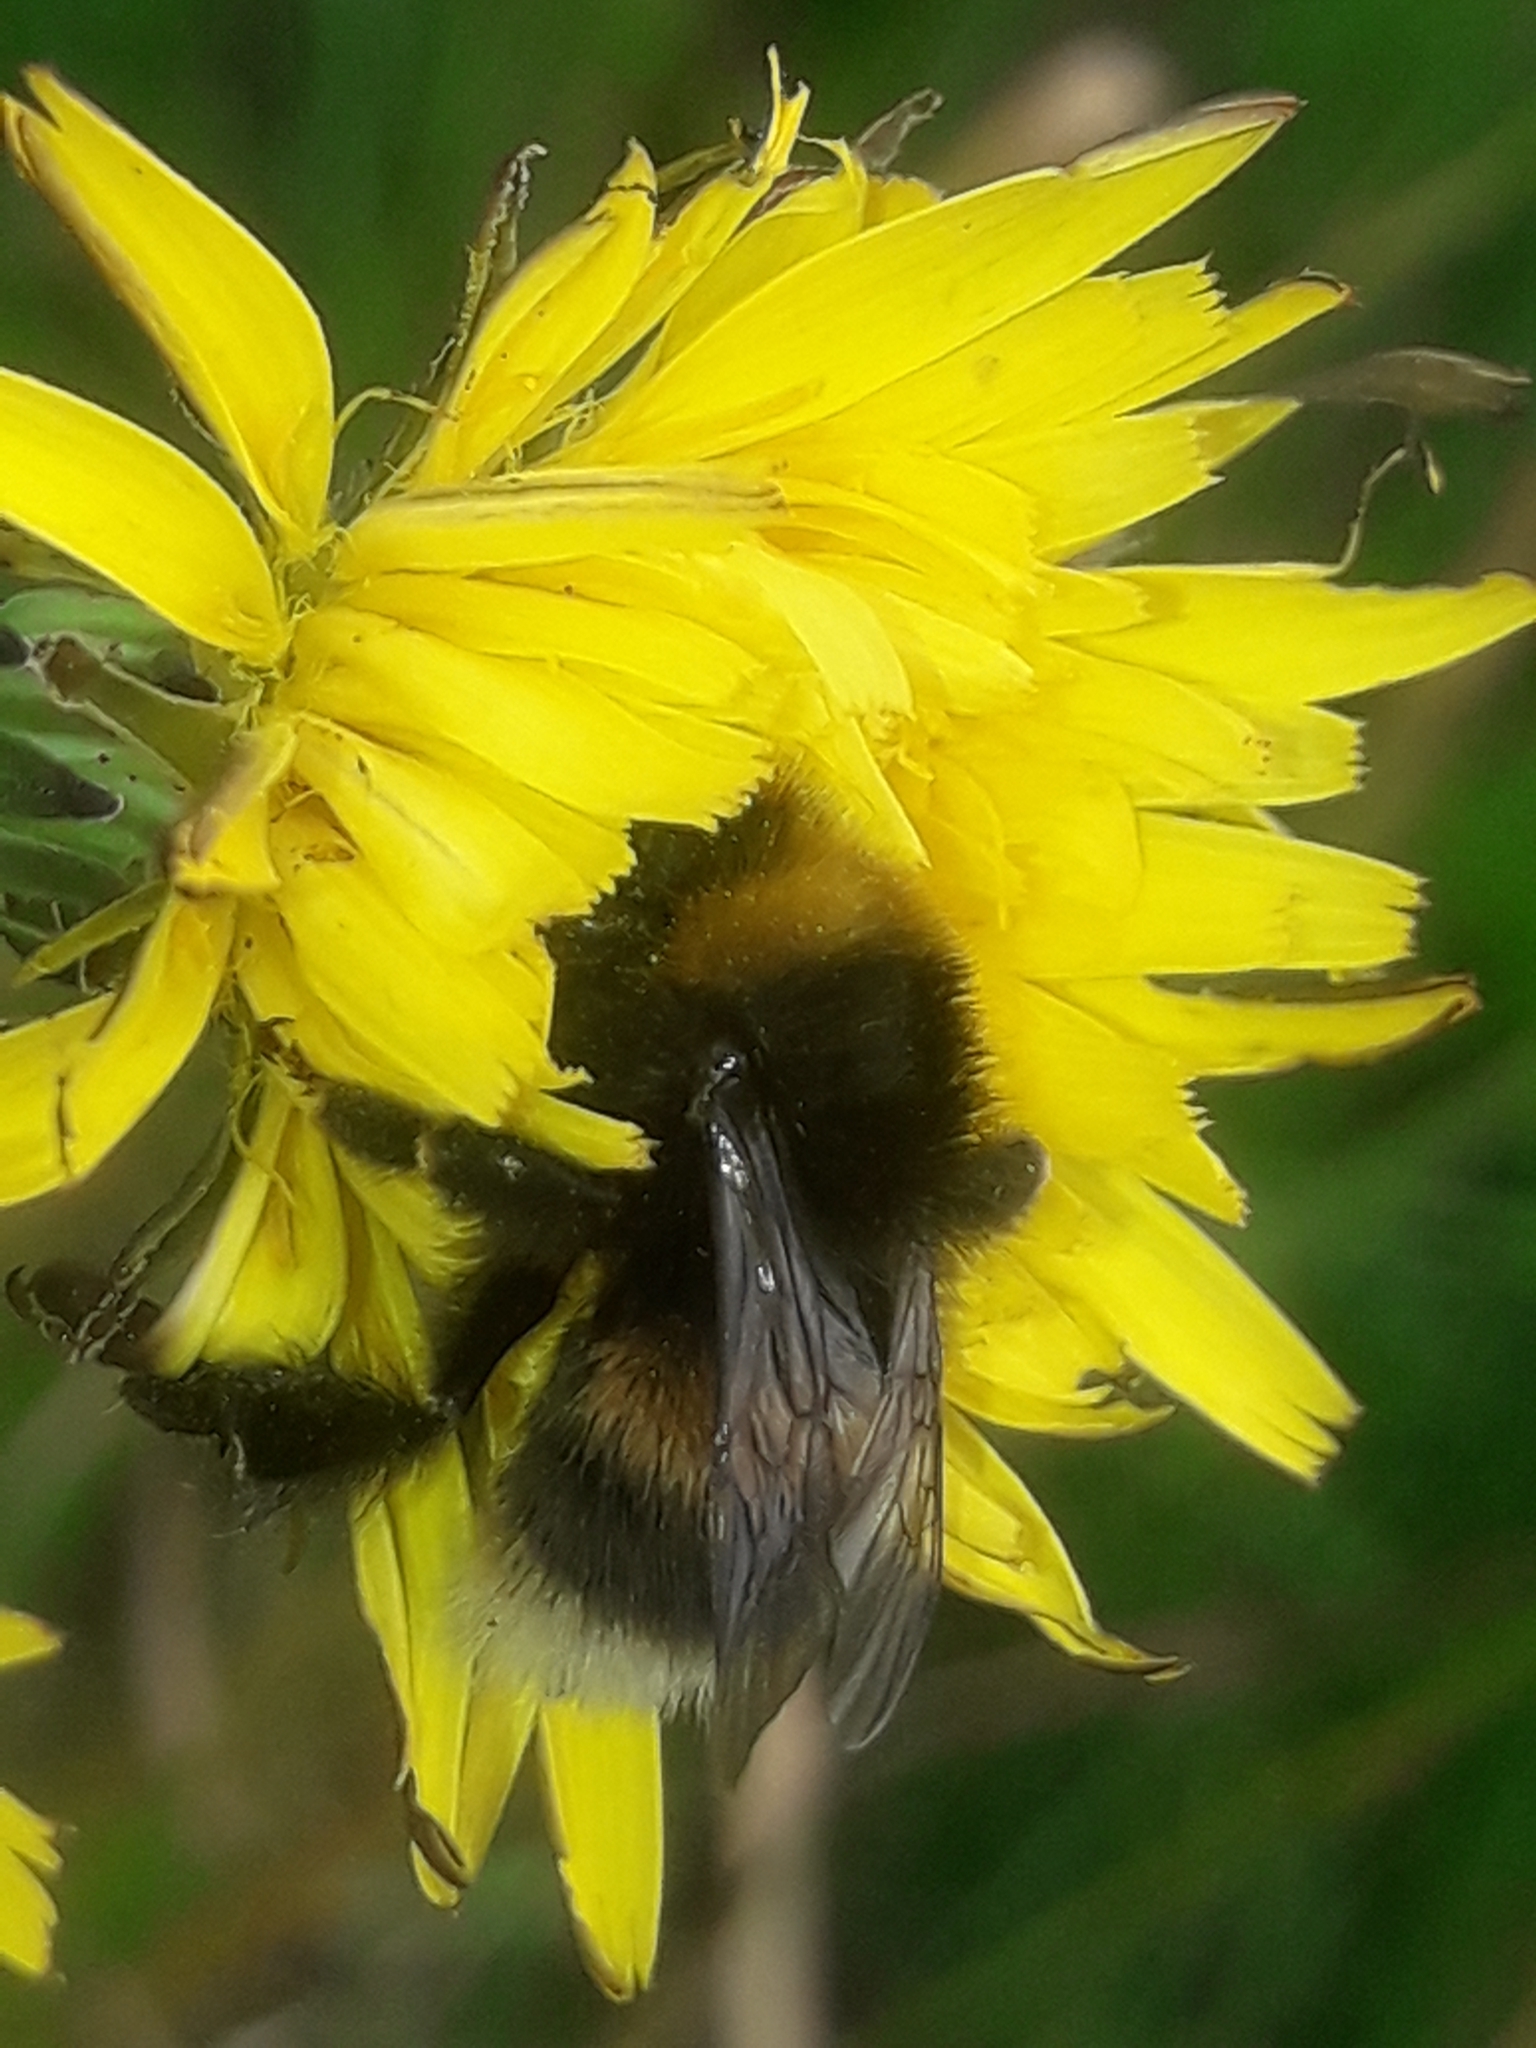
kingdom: Animalia
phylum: Arthropoda
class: Insecta
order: Hymenoptera
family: Apidae
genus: Bombus
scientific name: Bombus terrestris
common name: Buff-tailed bumblebee
